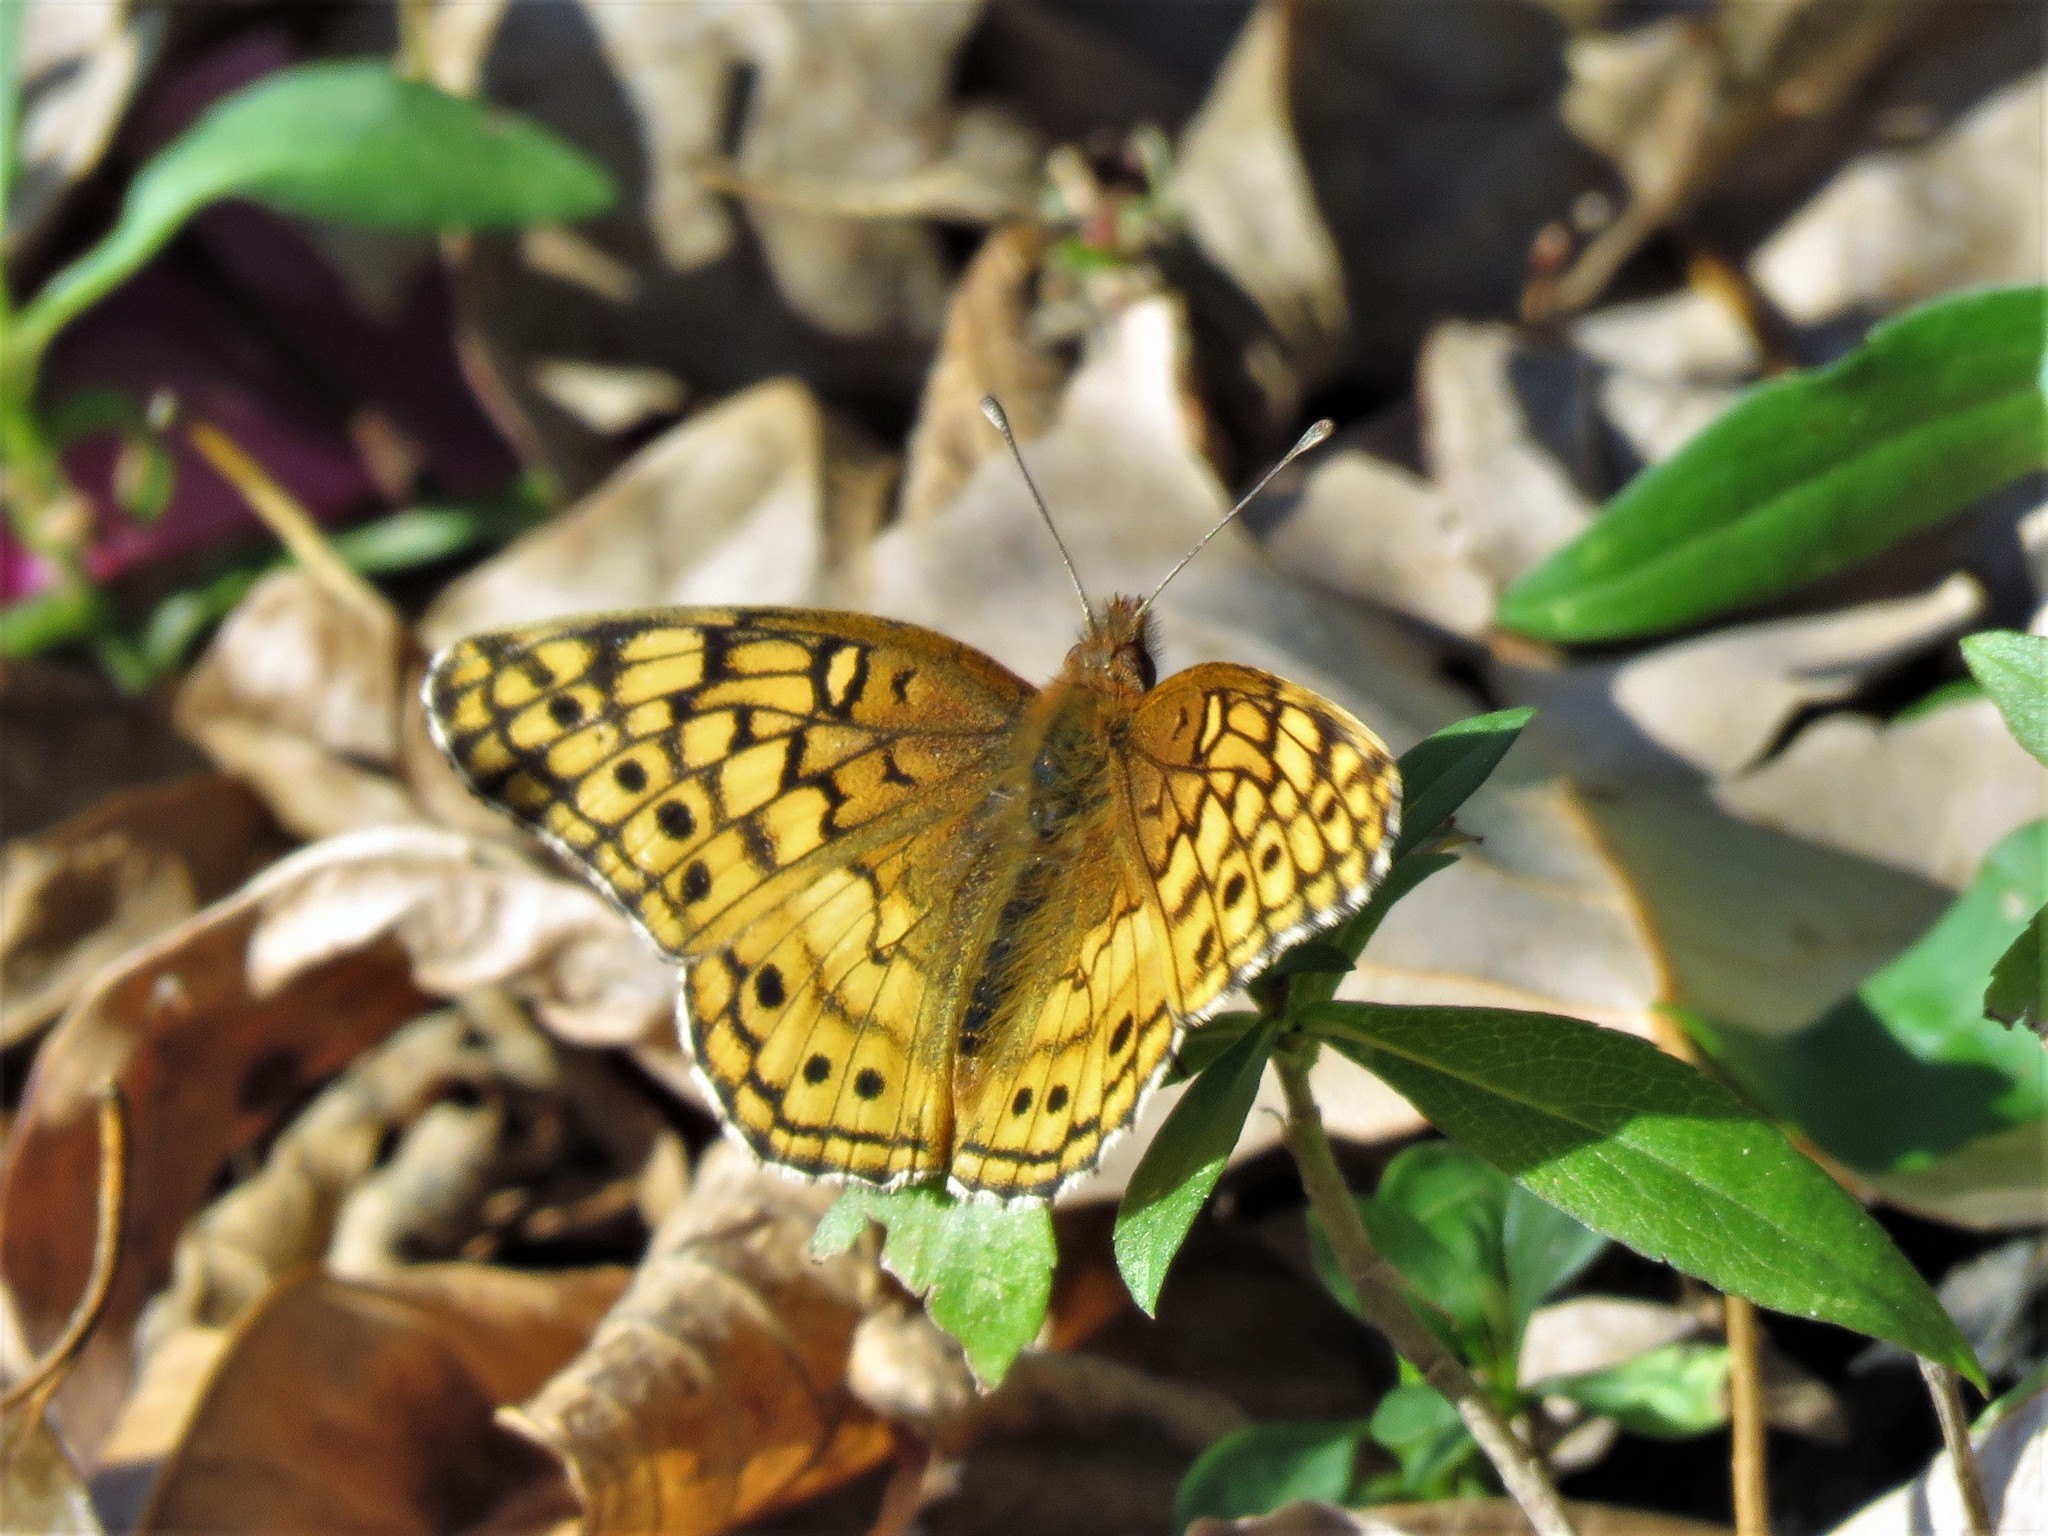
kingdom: Animalia
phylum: Arthropoda
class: Insecta
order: Lepidoptera
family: Nymphalidae
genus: Euptoieta
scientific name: Euptoieta claudia
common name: Variegated fritillary
